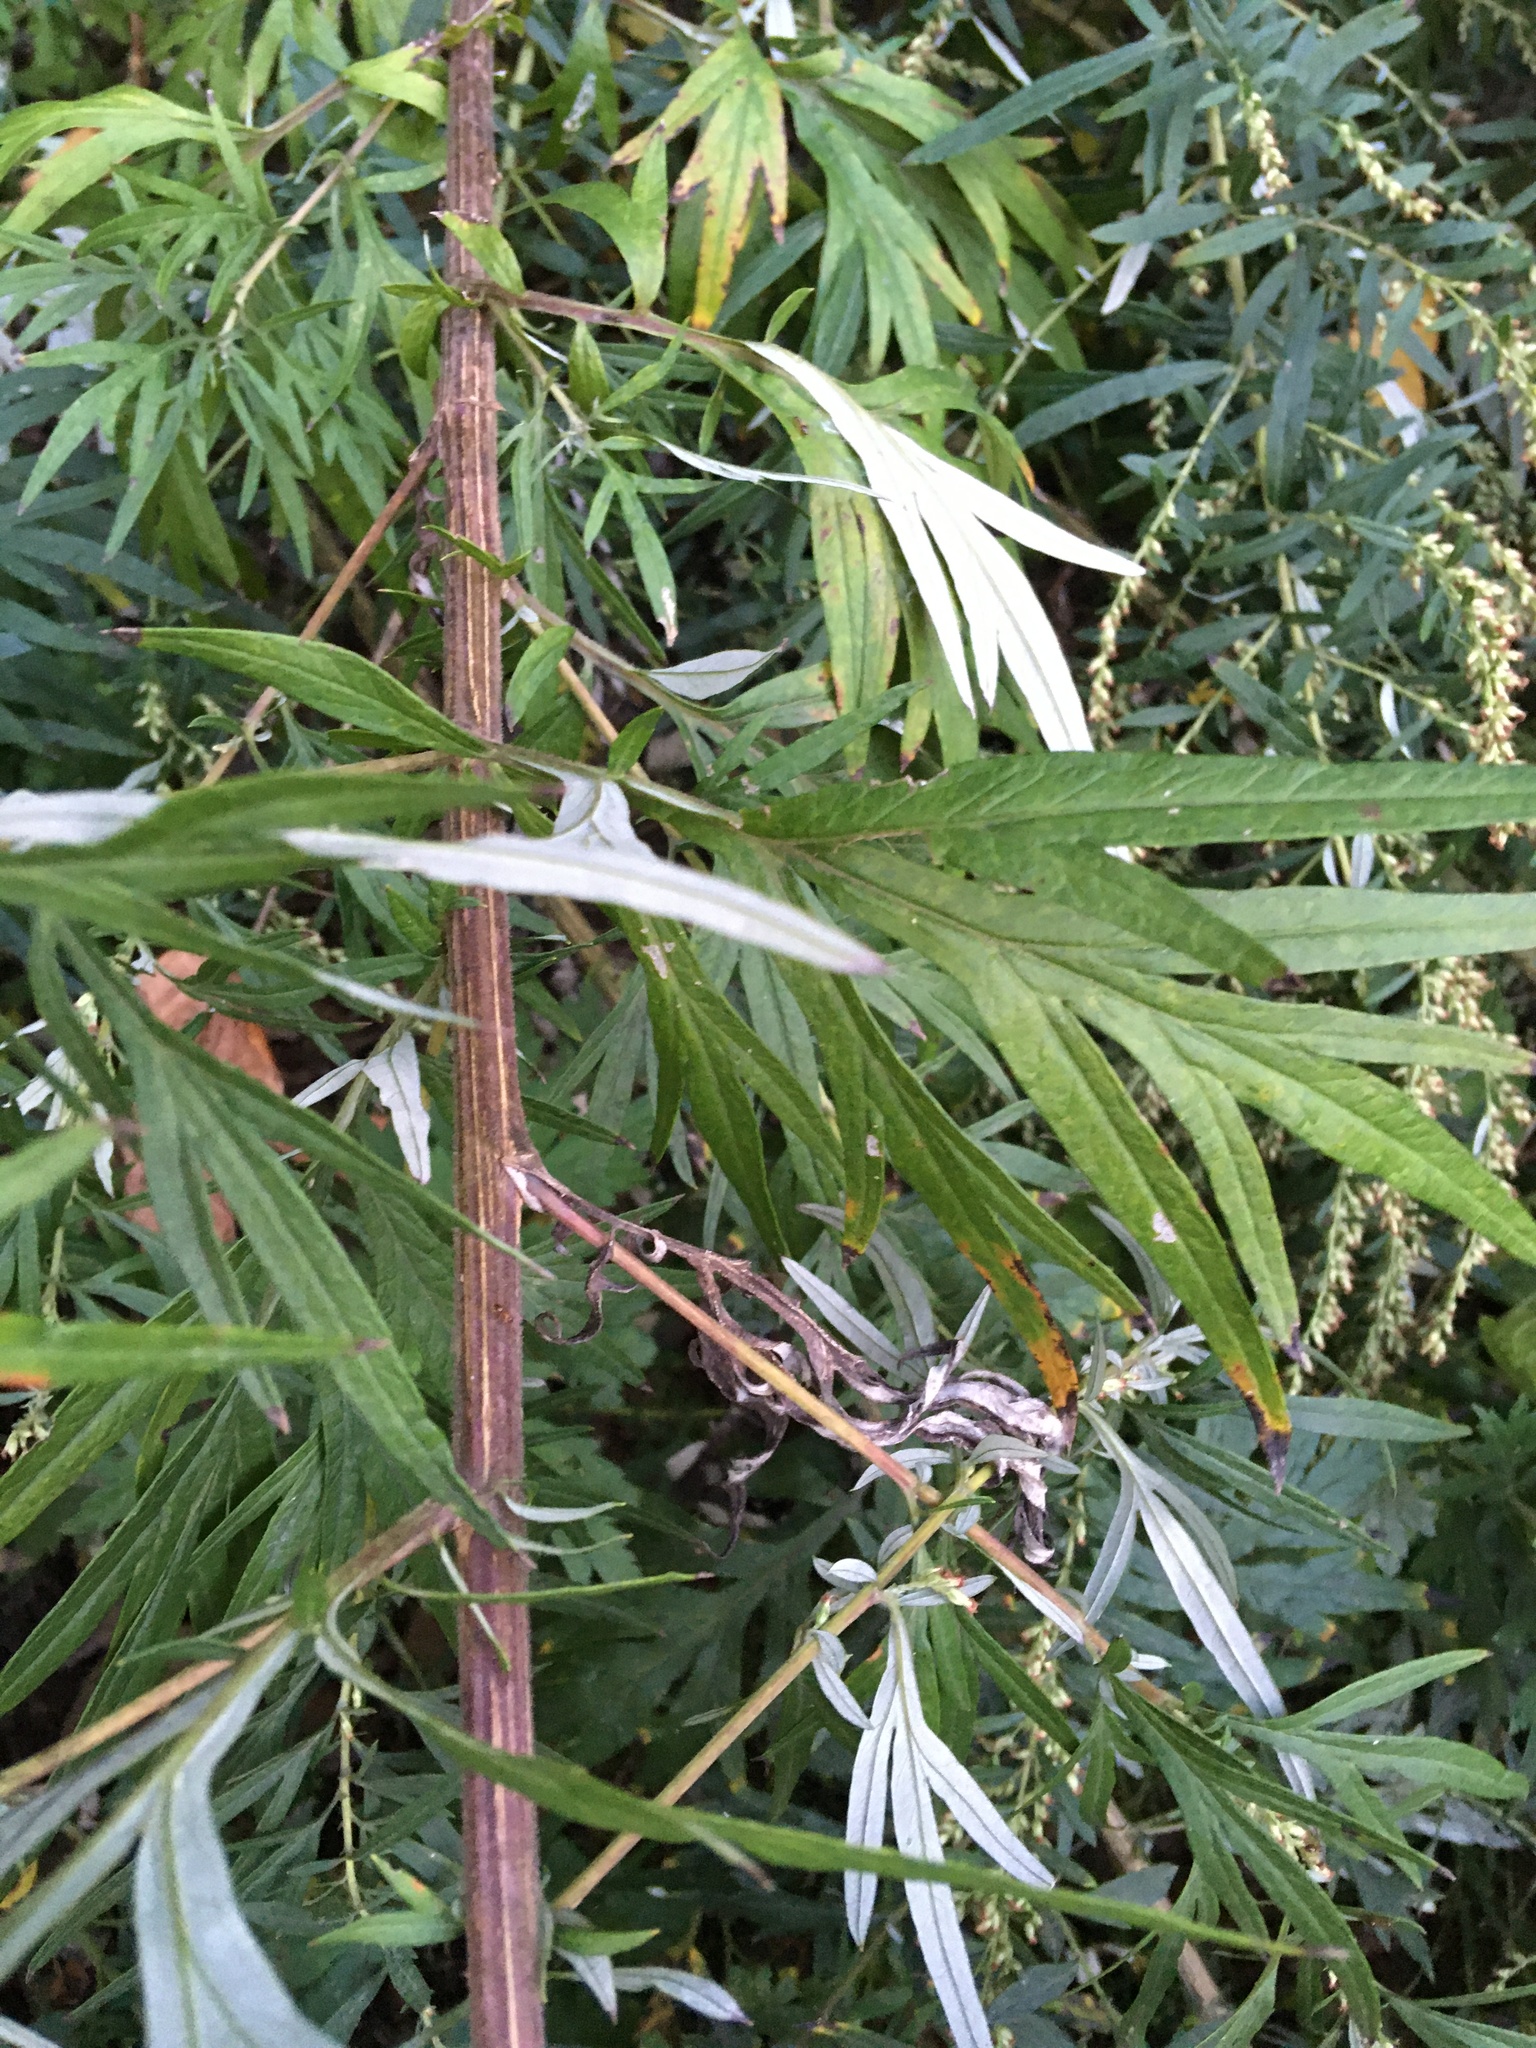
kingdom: Plantae
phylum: Tracheophyta
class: Magnoliopsida
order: Asterales
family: Asteraceae
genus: Artemisia
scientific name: Artemisia vulgaris
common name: Mugwort
